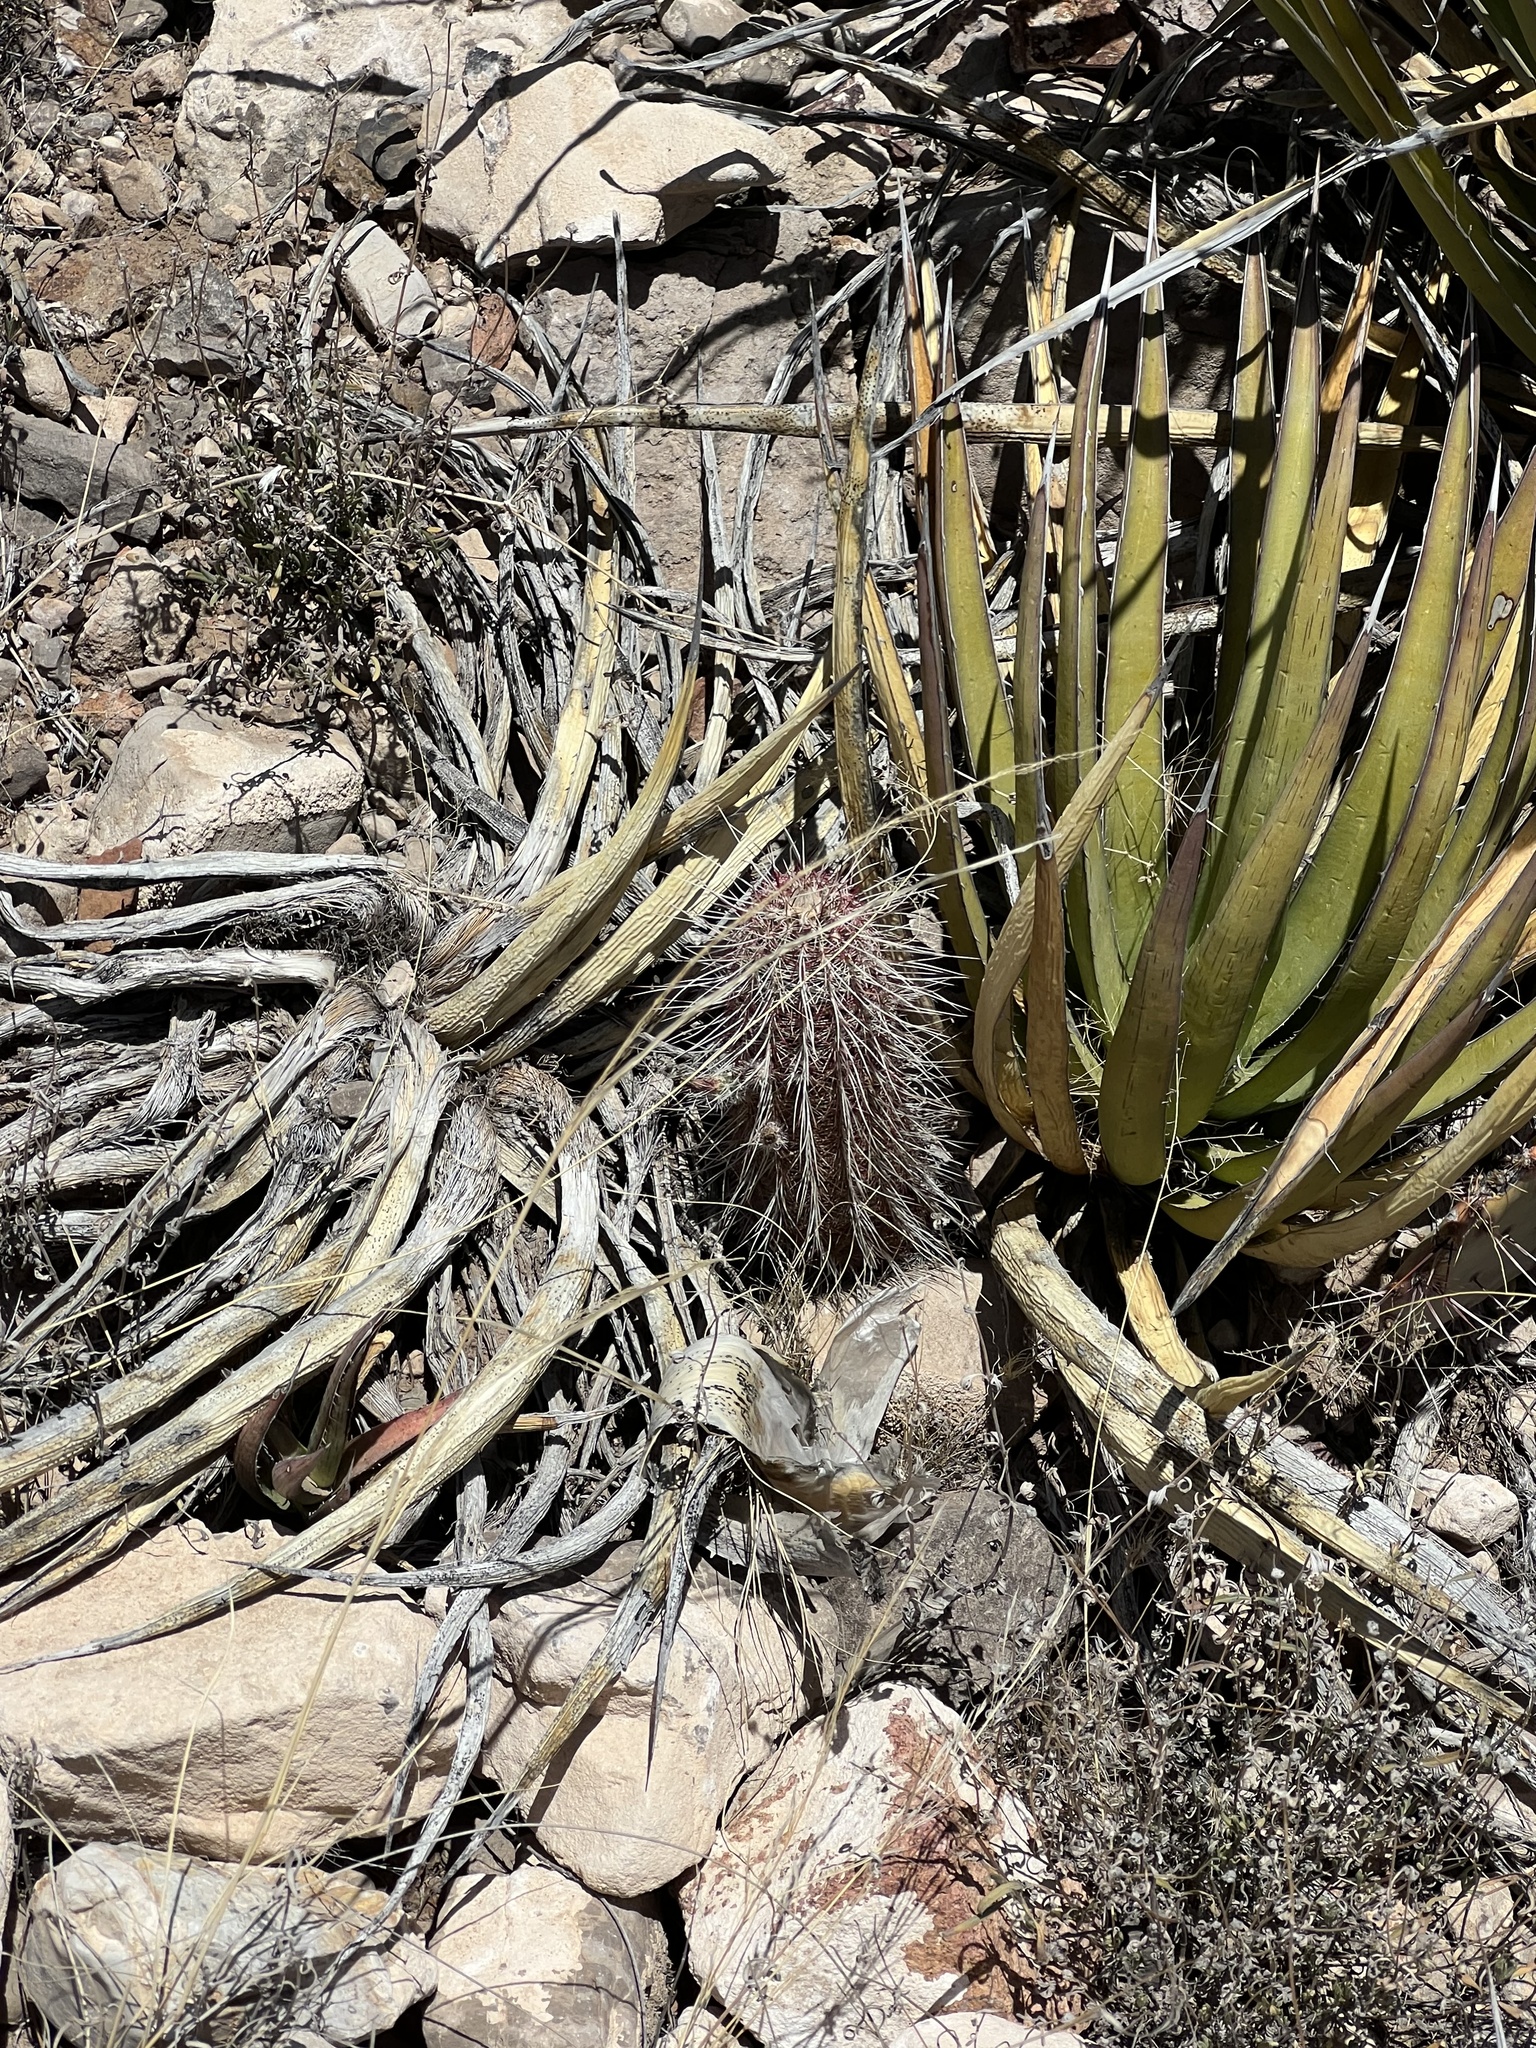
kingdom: Plantae
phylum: Tracheophyta
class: Magnoliopsida
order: Caryophyllales
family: Cactaceae
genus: Echinocereus
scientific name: Echinocereus viridiflorus
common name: Nylon hedgehog cactus
